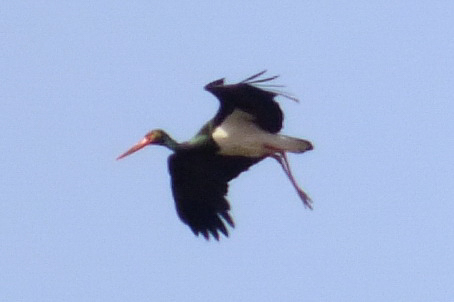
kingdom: Animalia
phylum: Chordata
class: Aves
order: Ciconiiformes
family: Ciconiidae
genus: Ciconia
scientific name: Ciconia nigra
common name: Black stork
